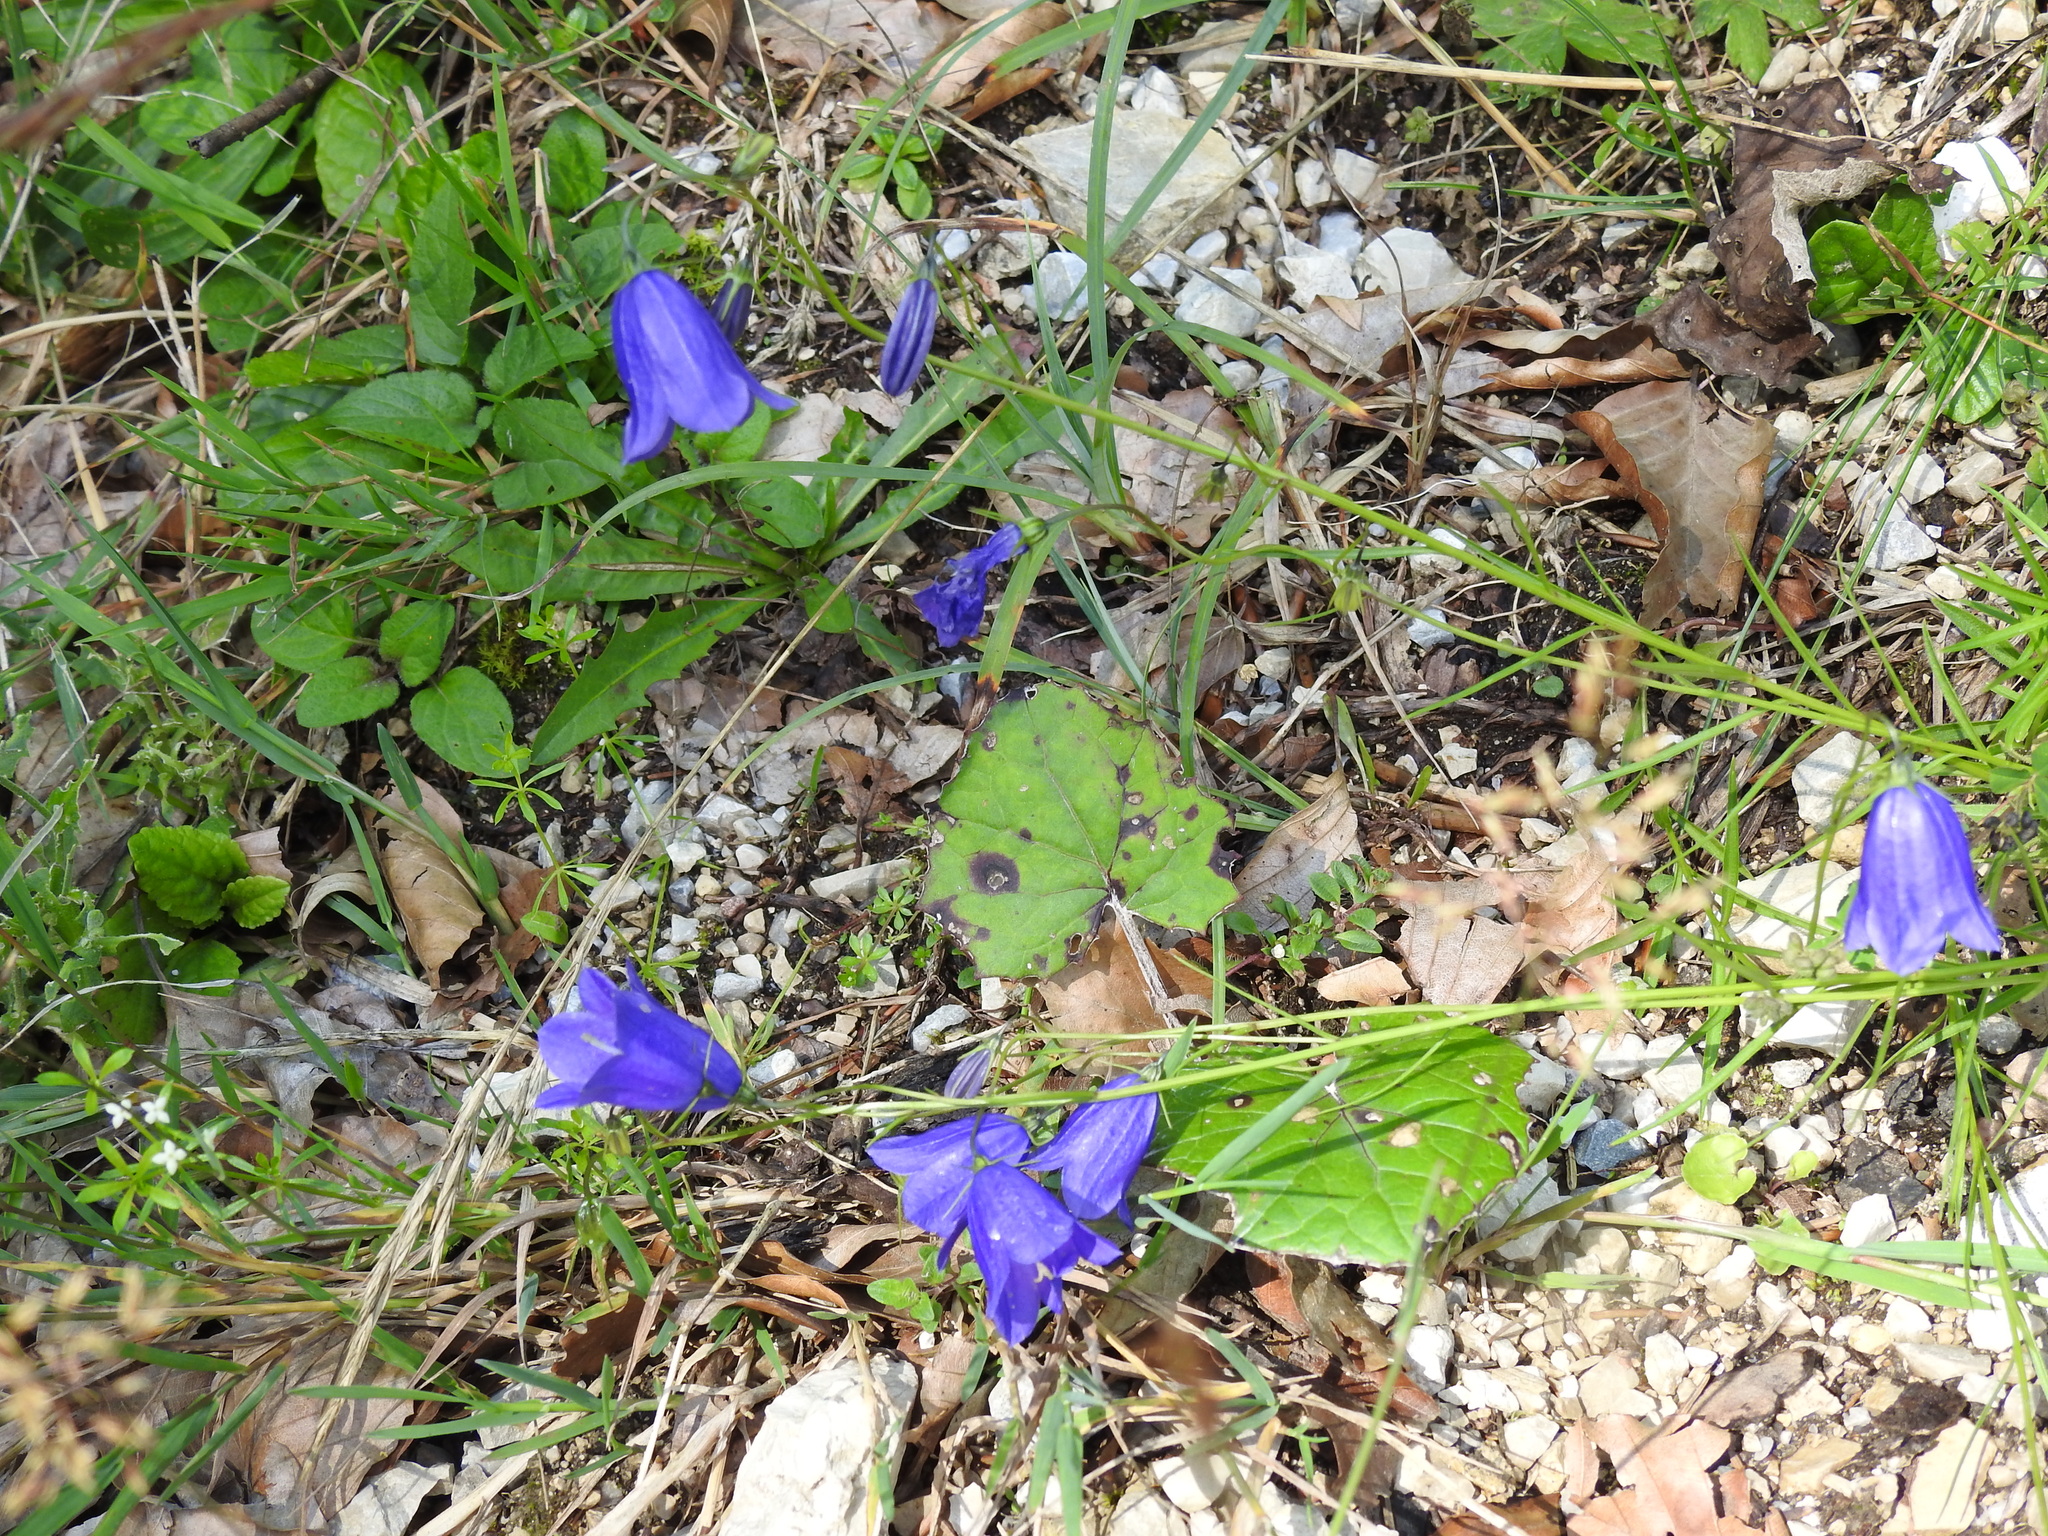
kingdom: Plantae
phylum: Tracheophyta
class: Magnoliopsida
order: Asterales
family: Campanulaceae
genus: Campanula
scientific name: Campanula scheuchzeri
